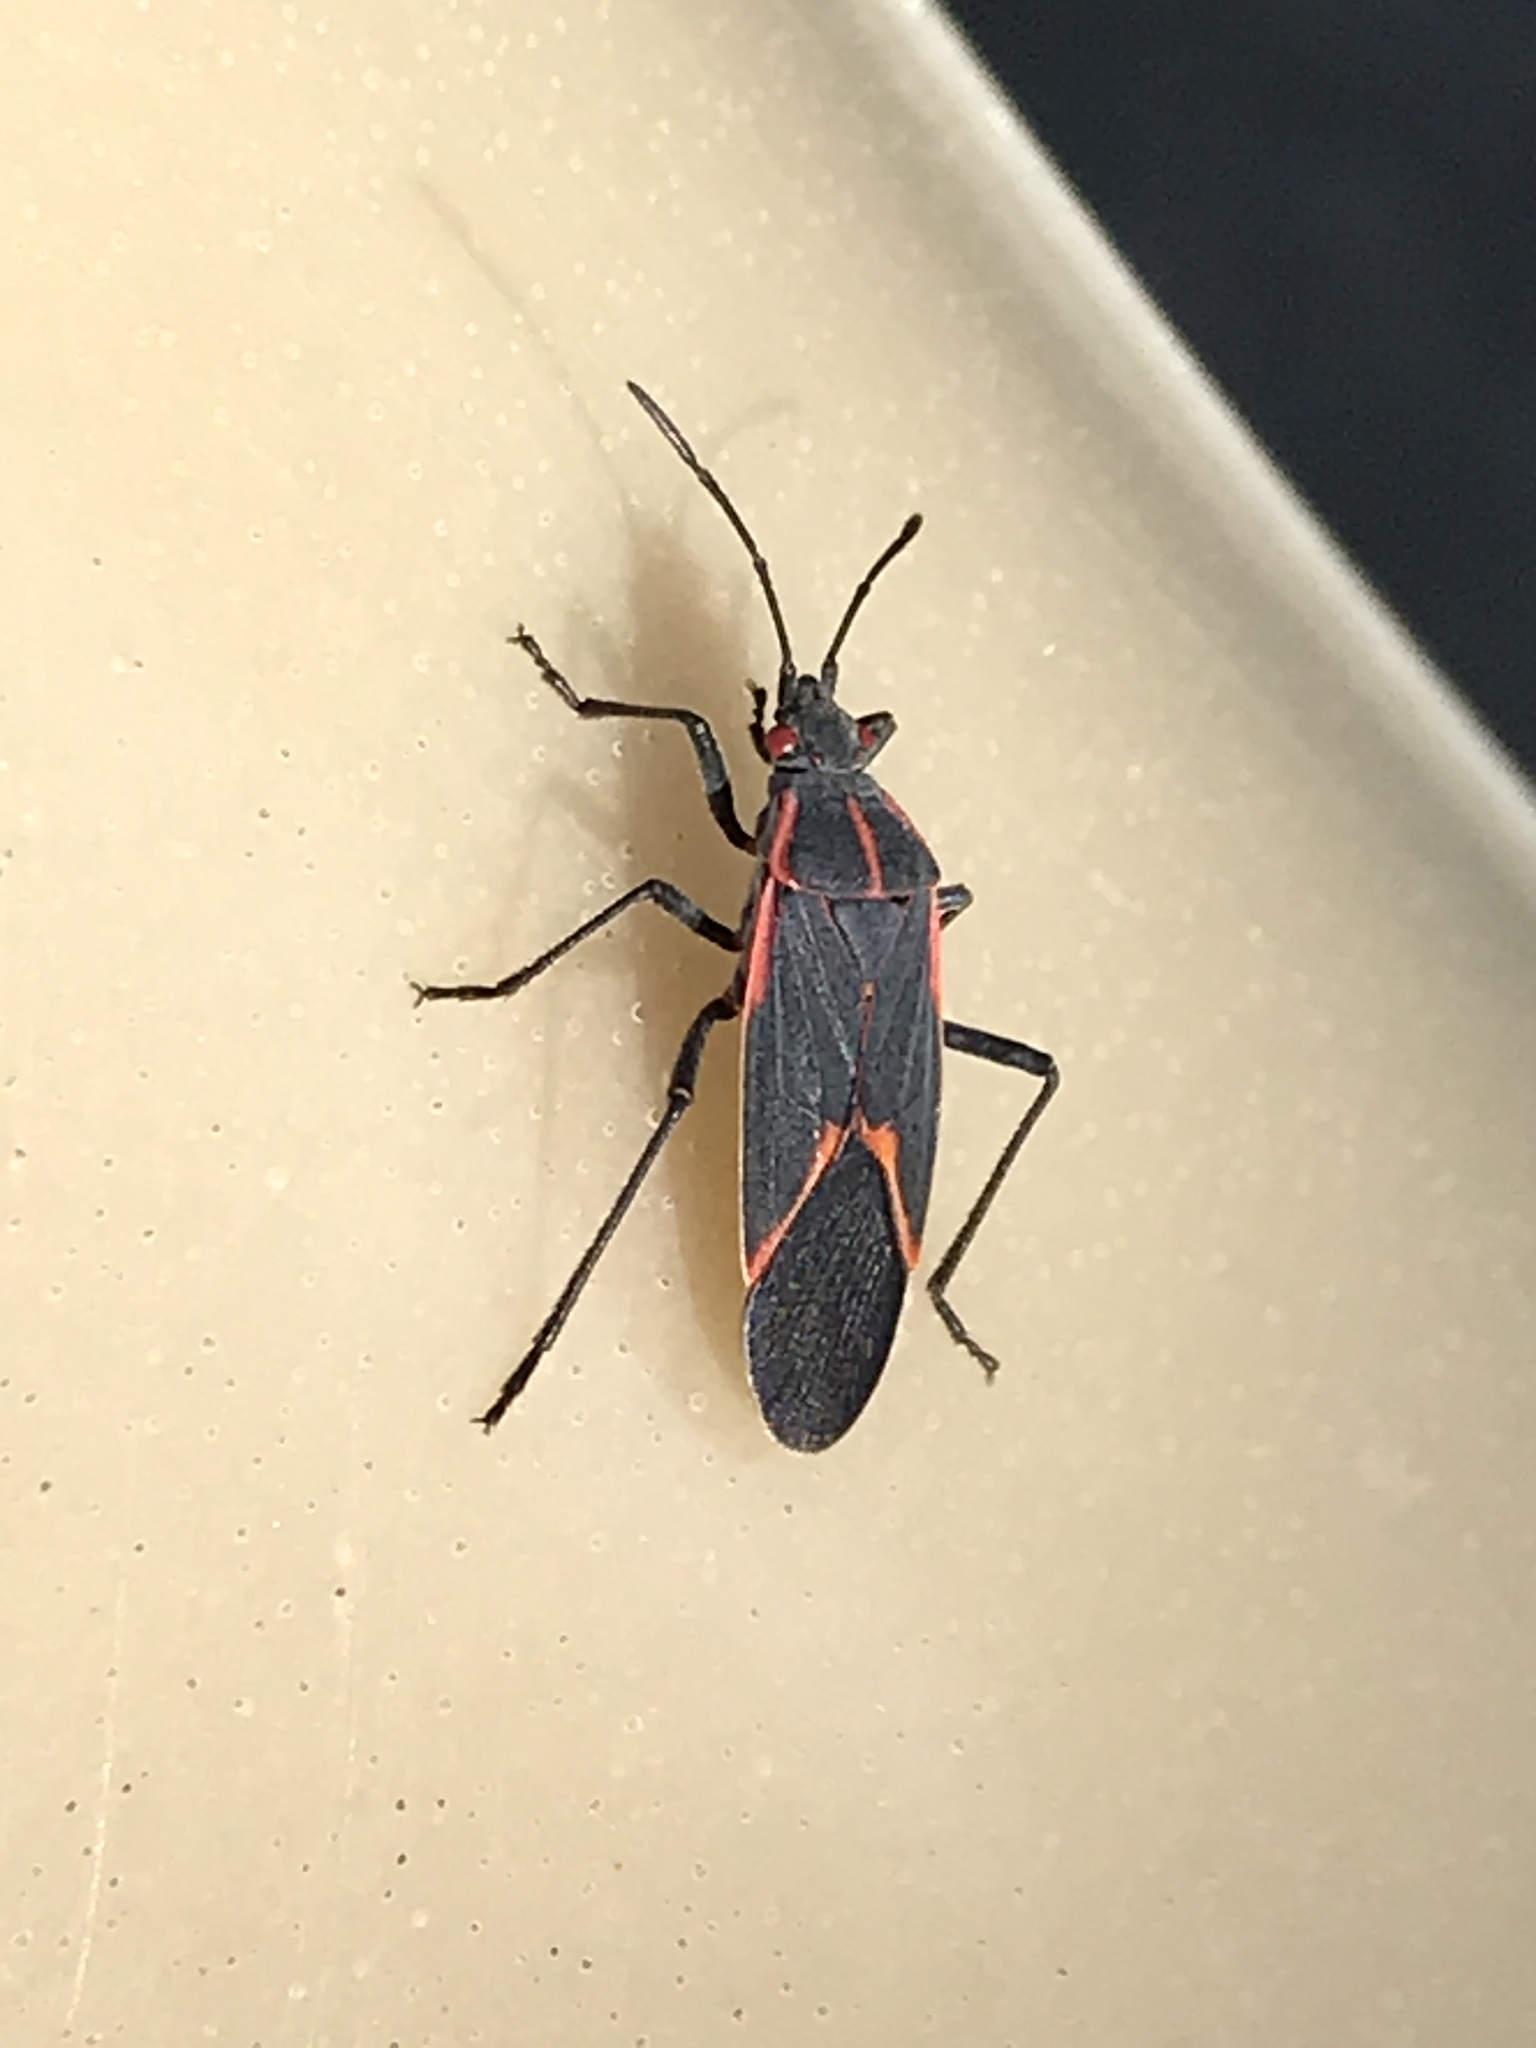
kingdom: Animalia
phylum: Arthropoda
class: Insecta
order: Hemiptera
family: Rhopalidae
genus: Boisea
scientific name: Boisea trivittata
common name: Boxelder bug
